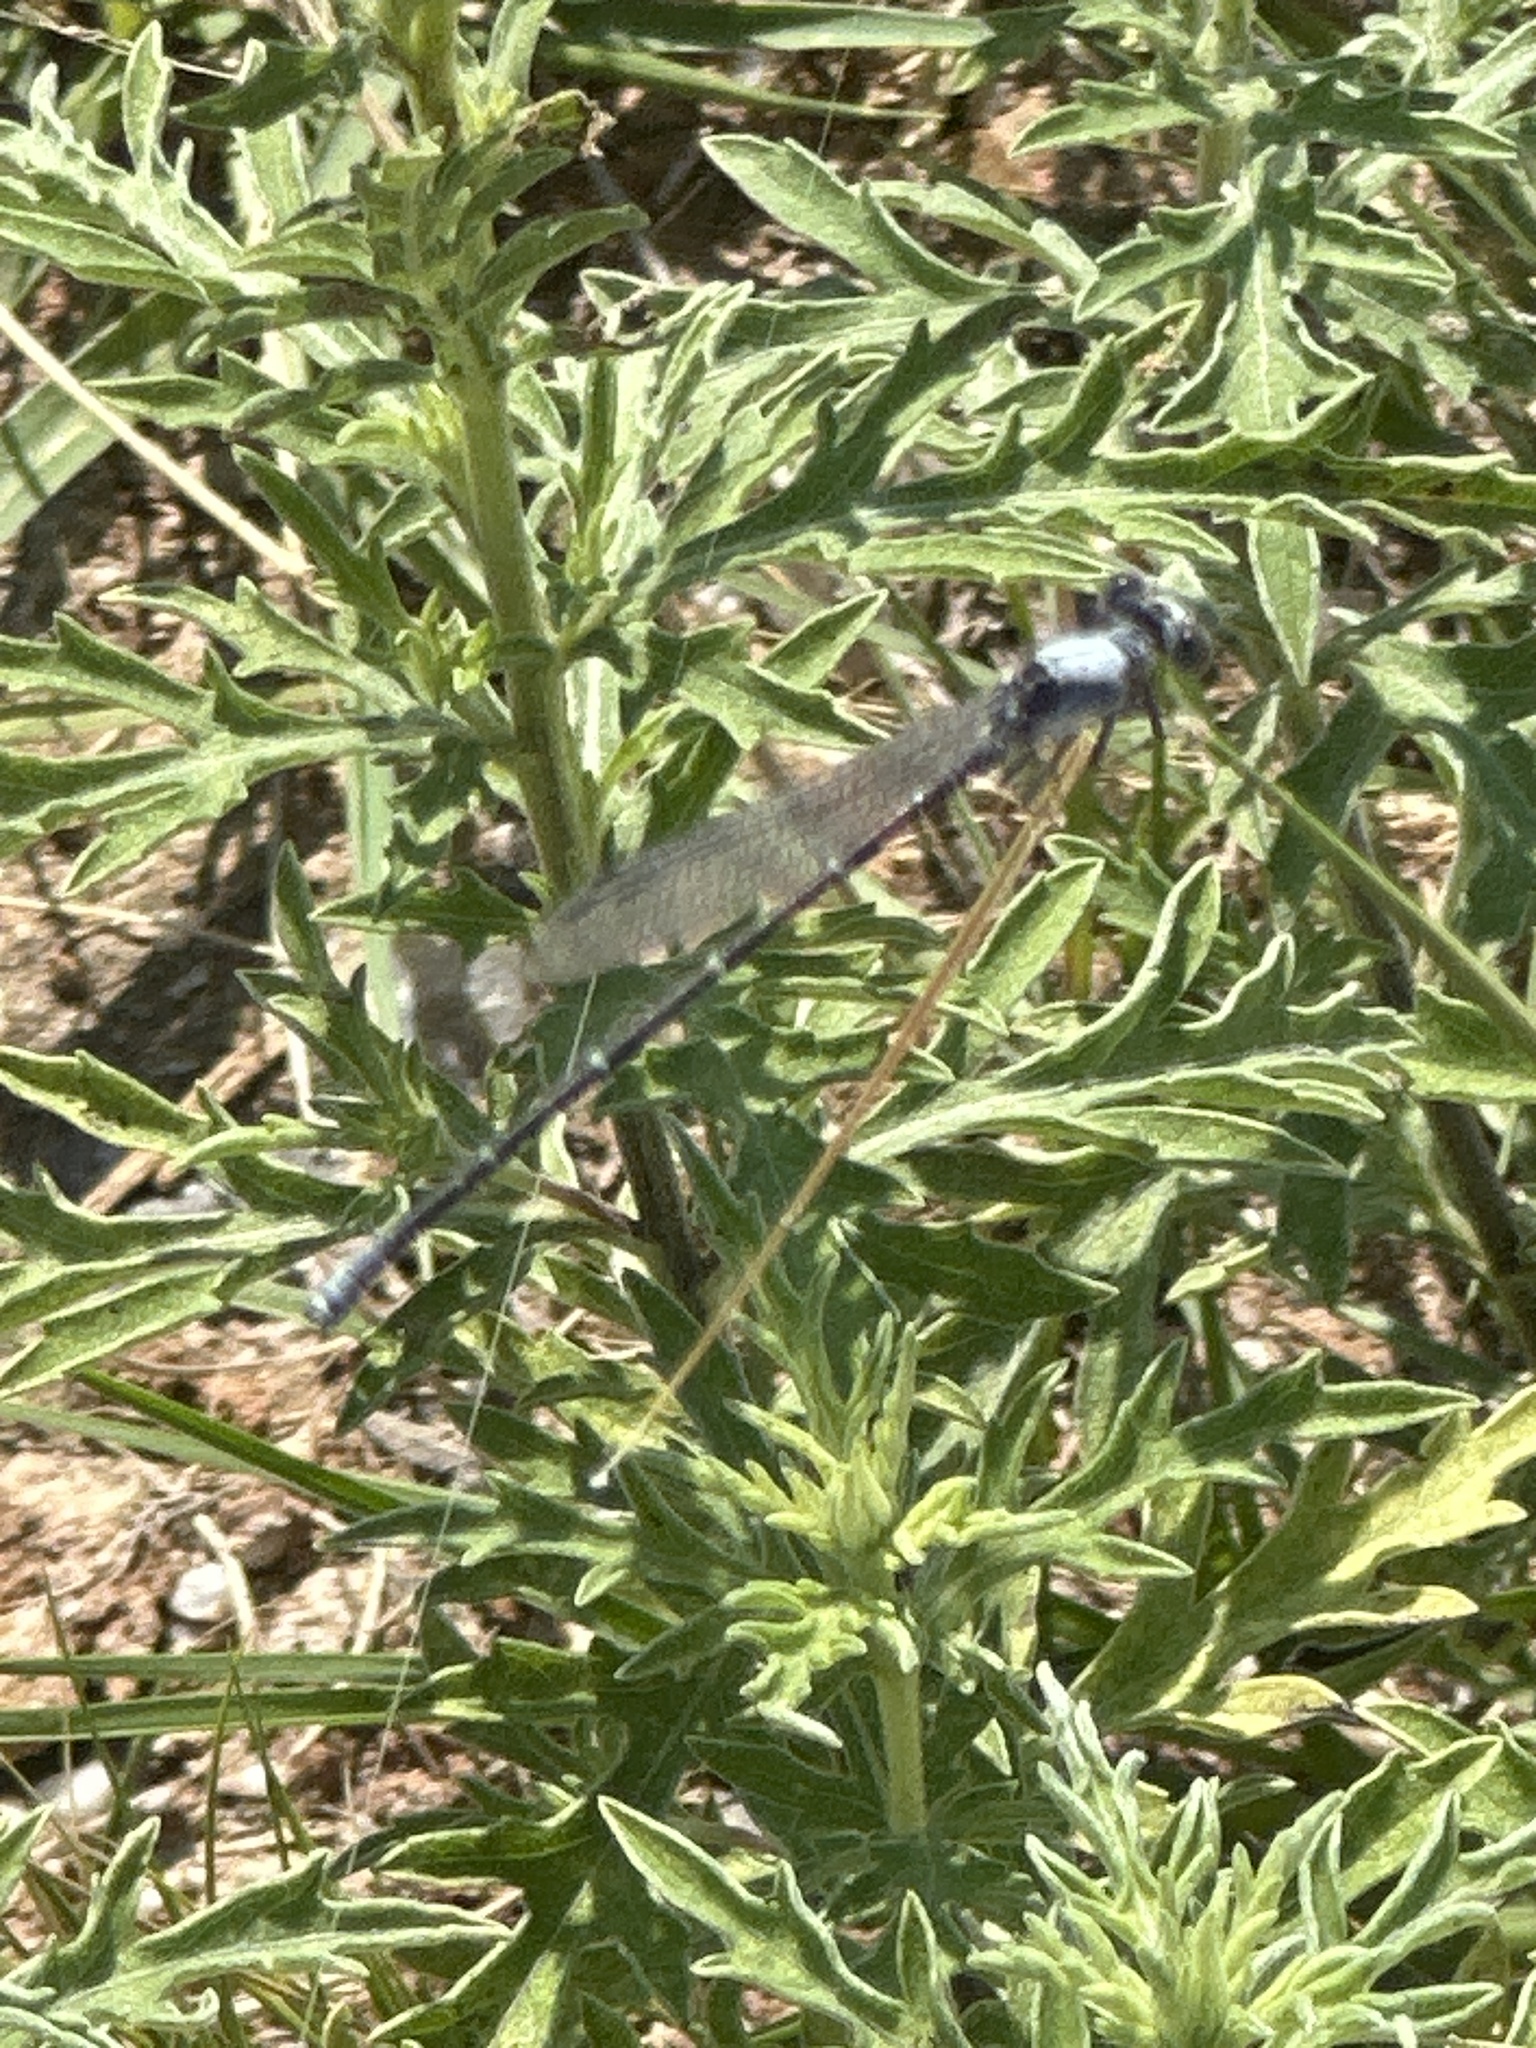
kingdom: Animalia
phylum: Arthropoda
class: Insecta
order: Odonata
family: Coenagrionidae
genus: Argia
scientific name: Argia moesta
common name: Powdered dancer
